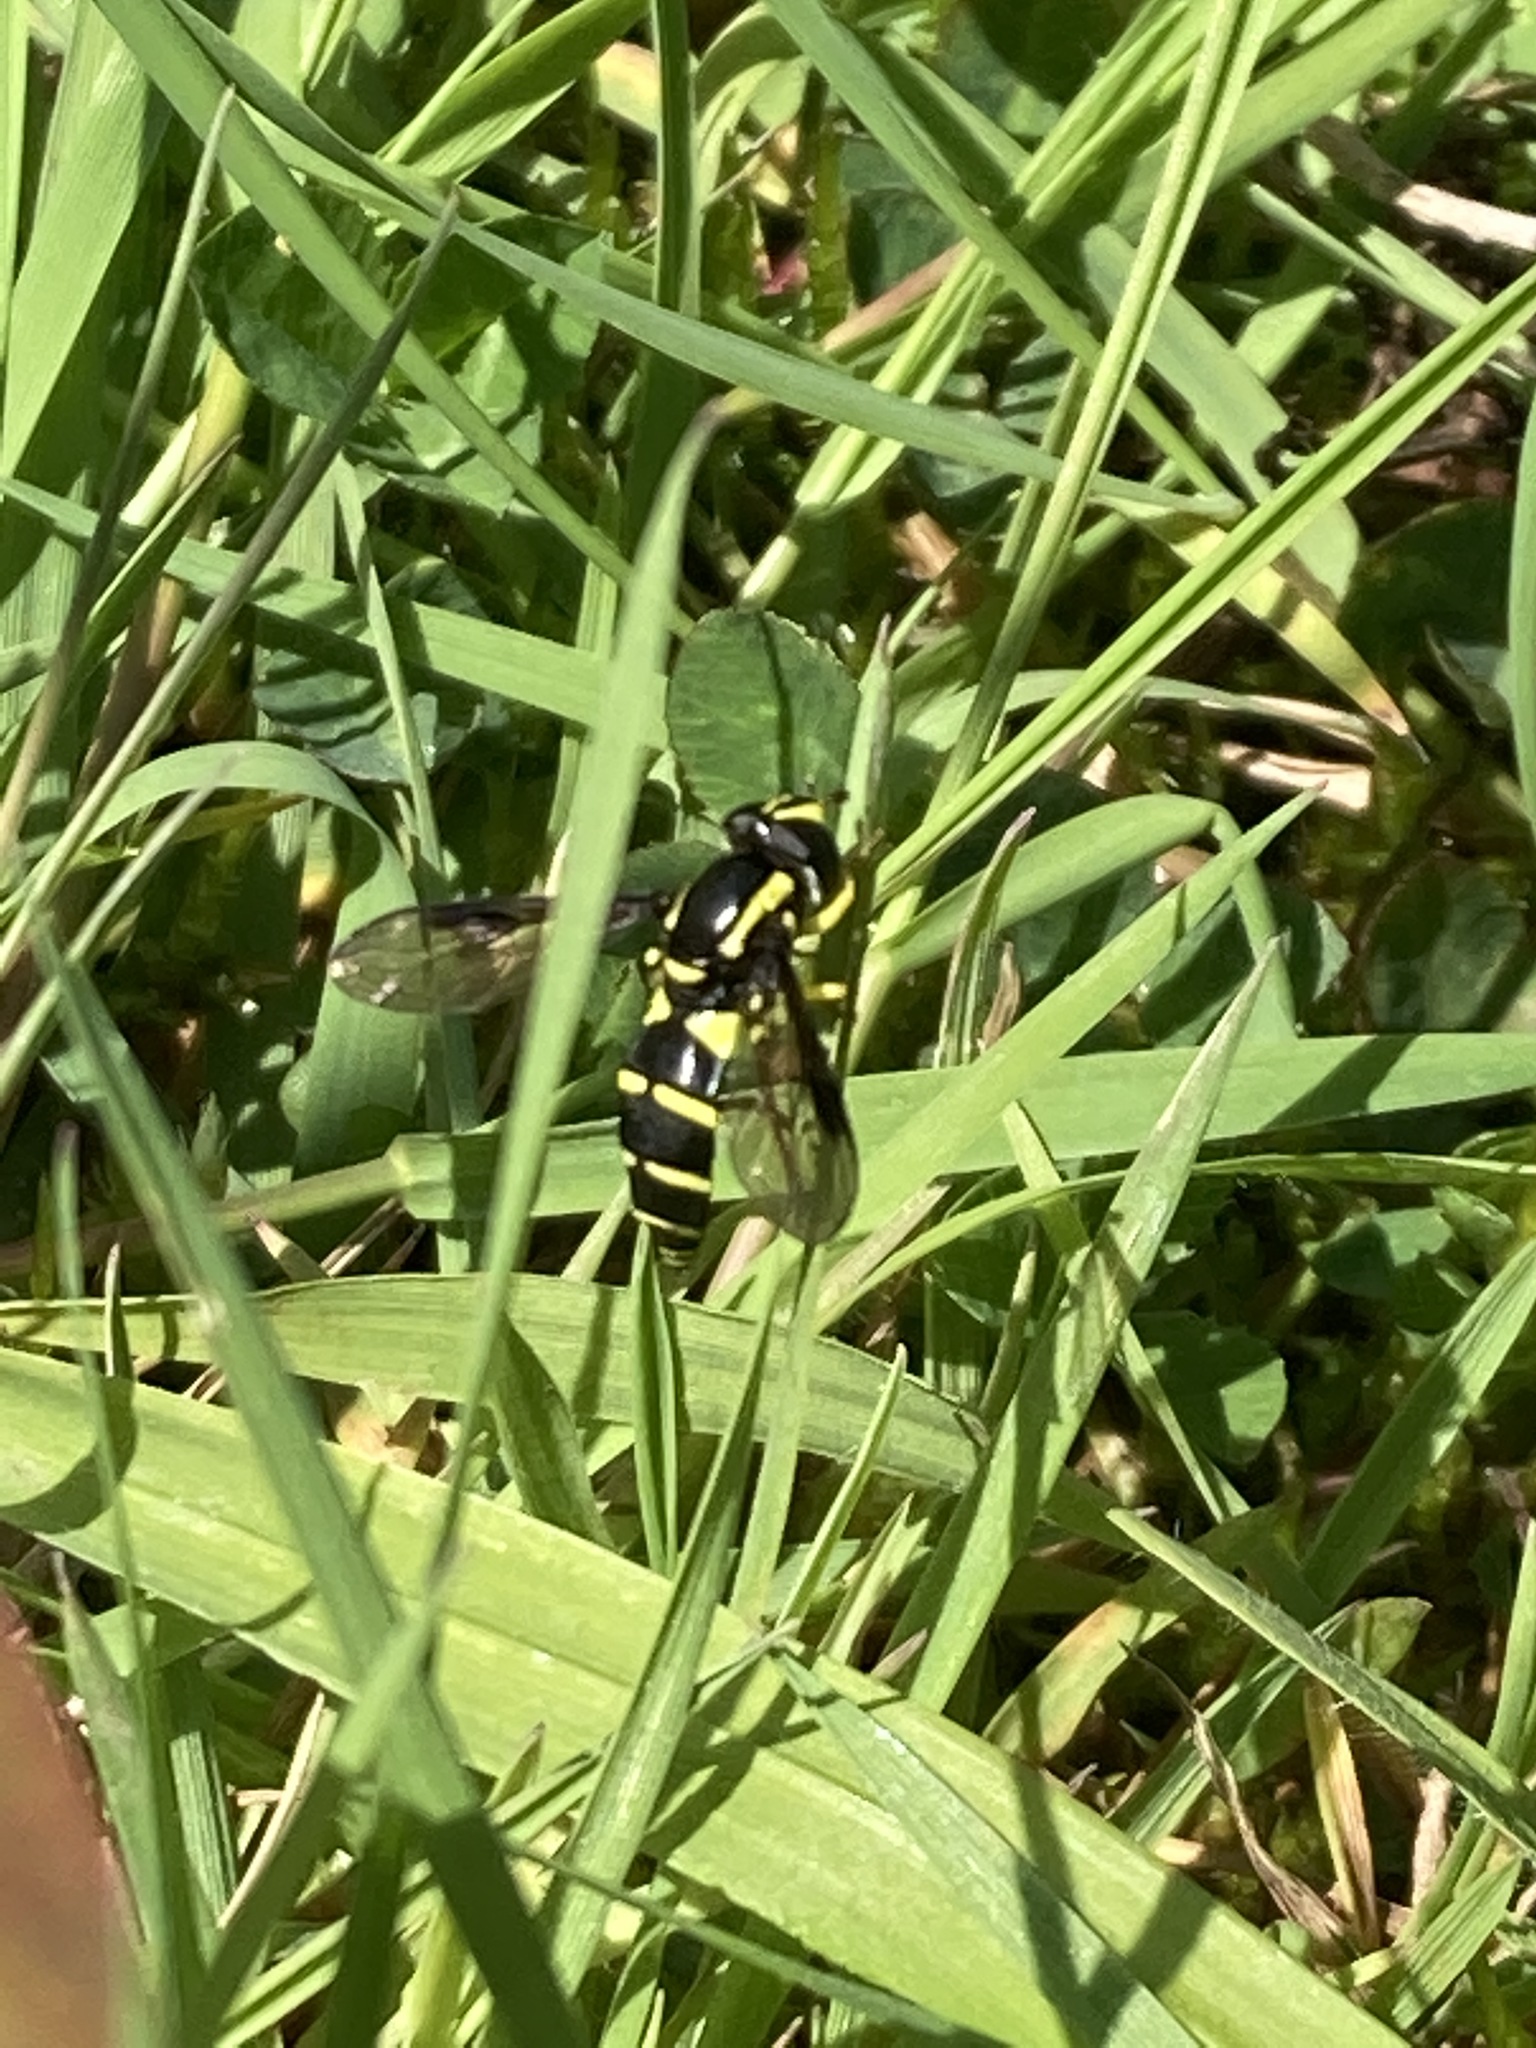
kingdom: Animalia
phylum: Arthropoda
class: Insecta
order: Diptera
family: Syrphidae
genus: Philhelius
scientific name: Philhelius pedissequum
